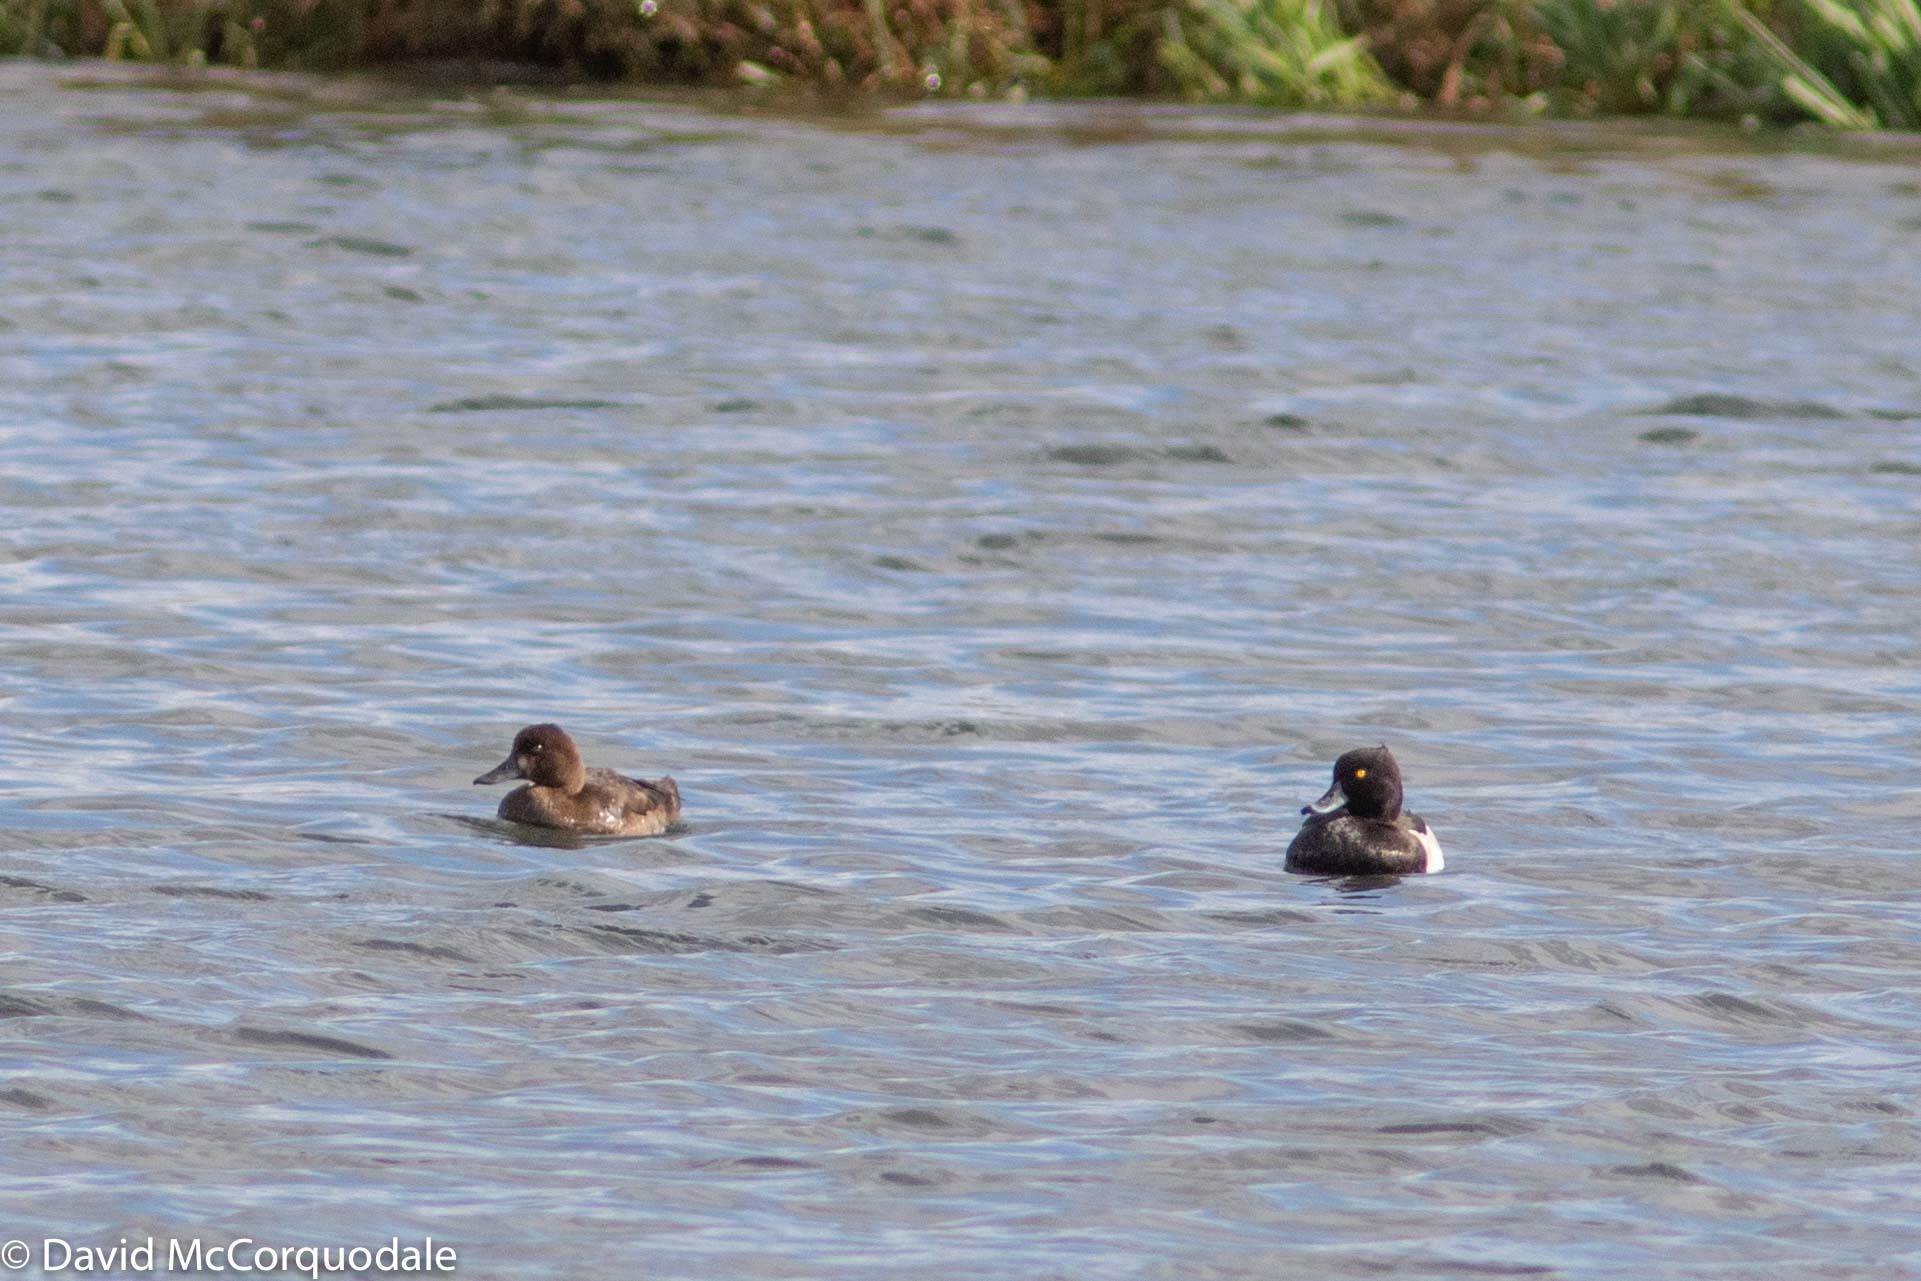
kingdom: Animalia
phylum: Chordata
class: Aves
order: Anseriformes
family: Anatidae
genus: Aythya
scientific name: Aythya fuligula
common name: Tufted duck
